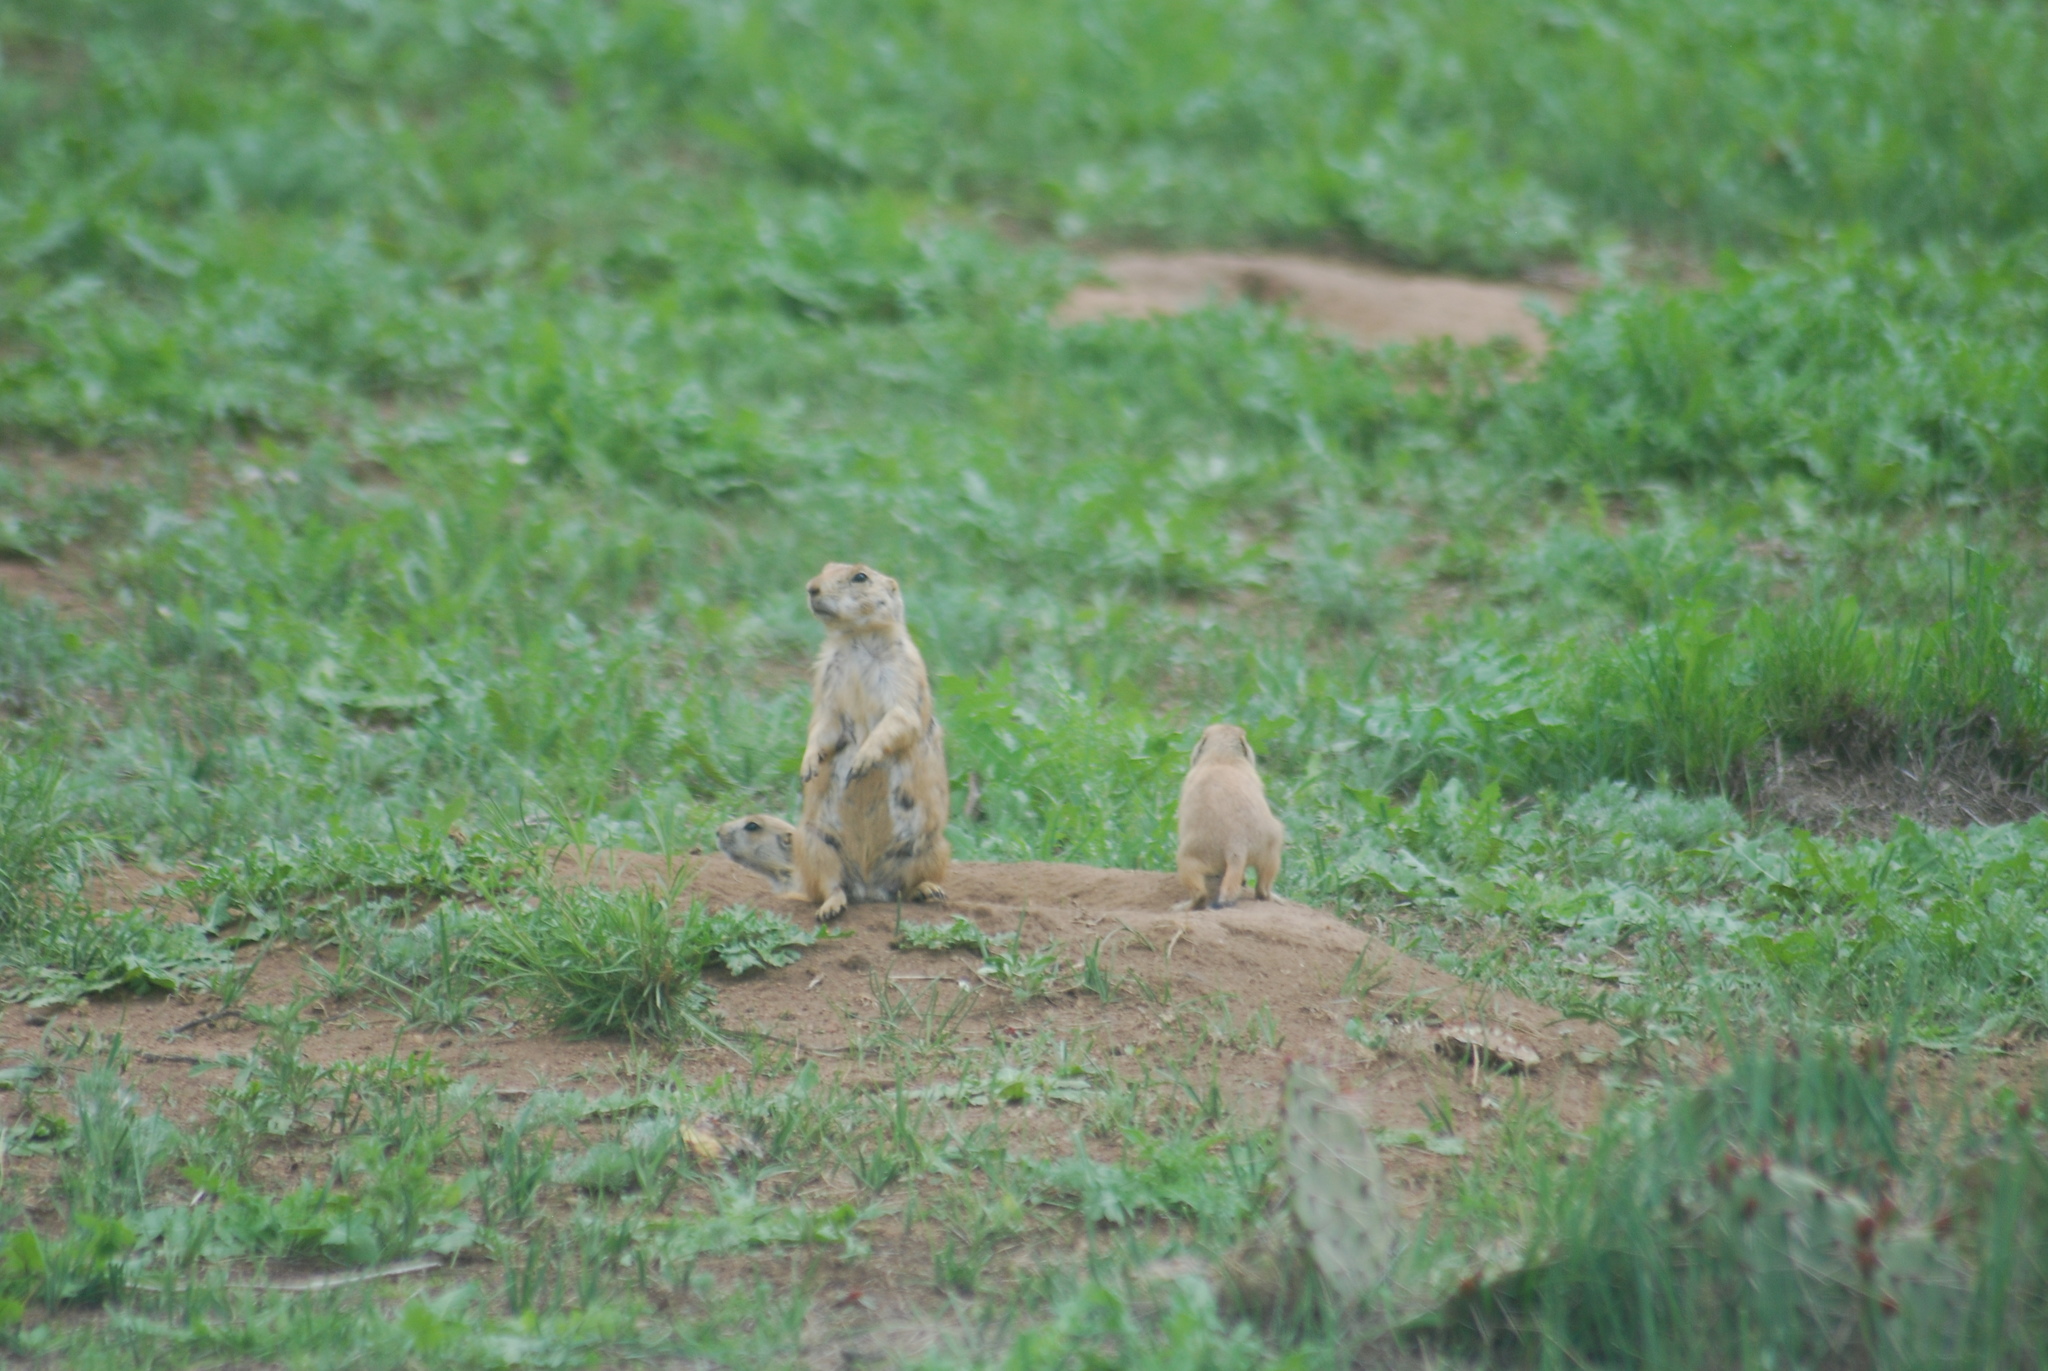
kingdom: Animalia
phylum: Chordata
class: Mammalia
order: Rodentia
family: Sciuridae
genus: Cynomys
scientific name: Cynomys ludovicianus
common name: Black-tailed prairie dog
